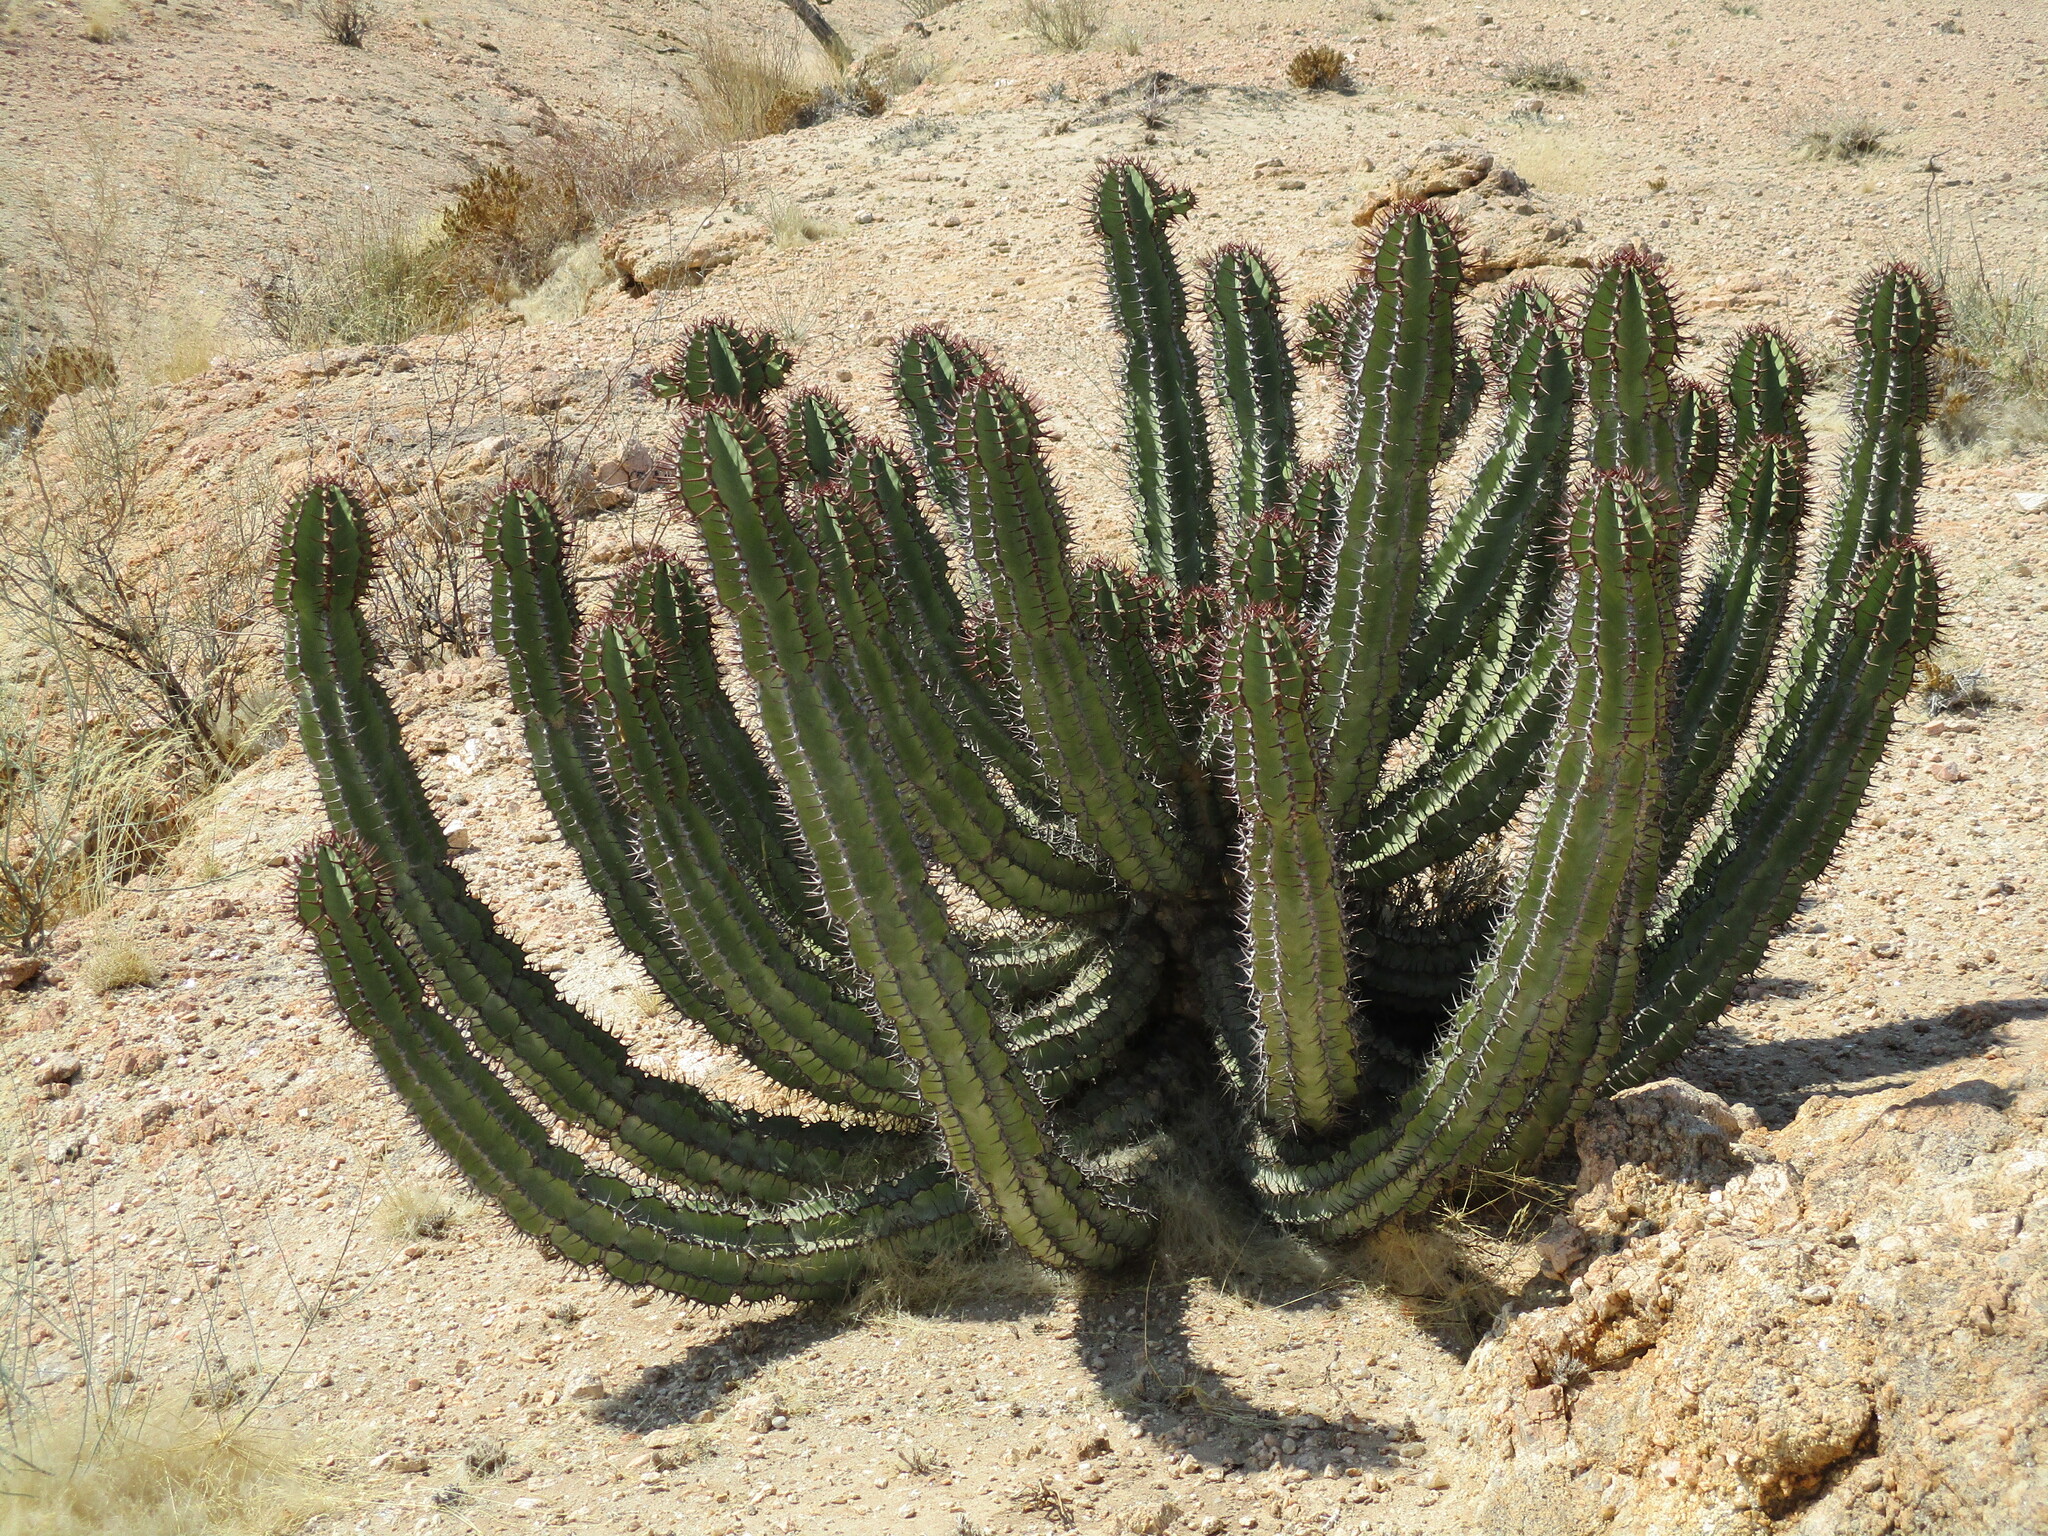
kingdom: Plantae
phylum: Tracheophyta
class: Magnoliopsida
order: Malpighiales
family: Euphorbiaceae
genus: Euphorbia
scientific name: Euphorbia virosa
